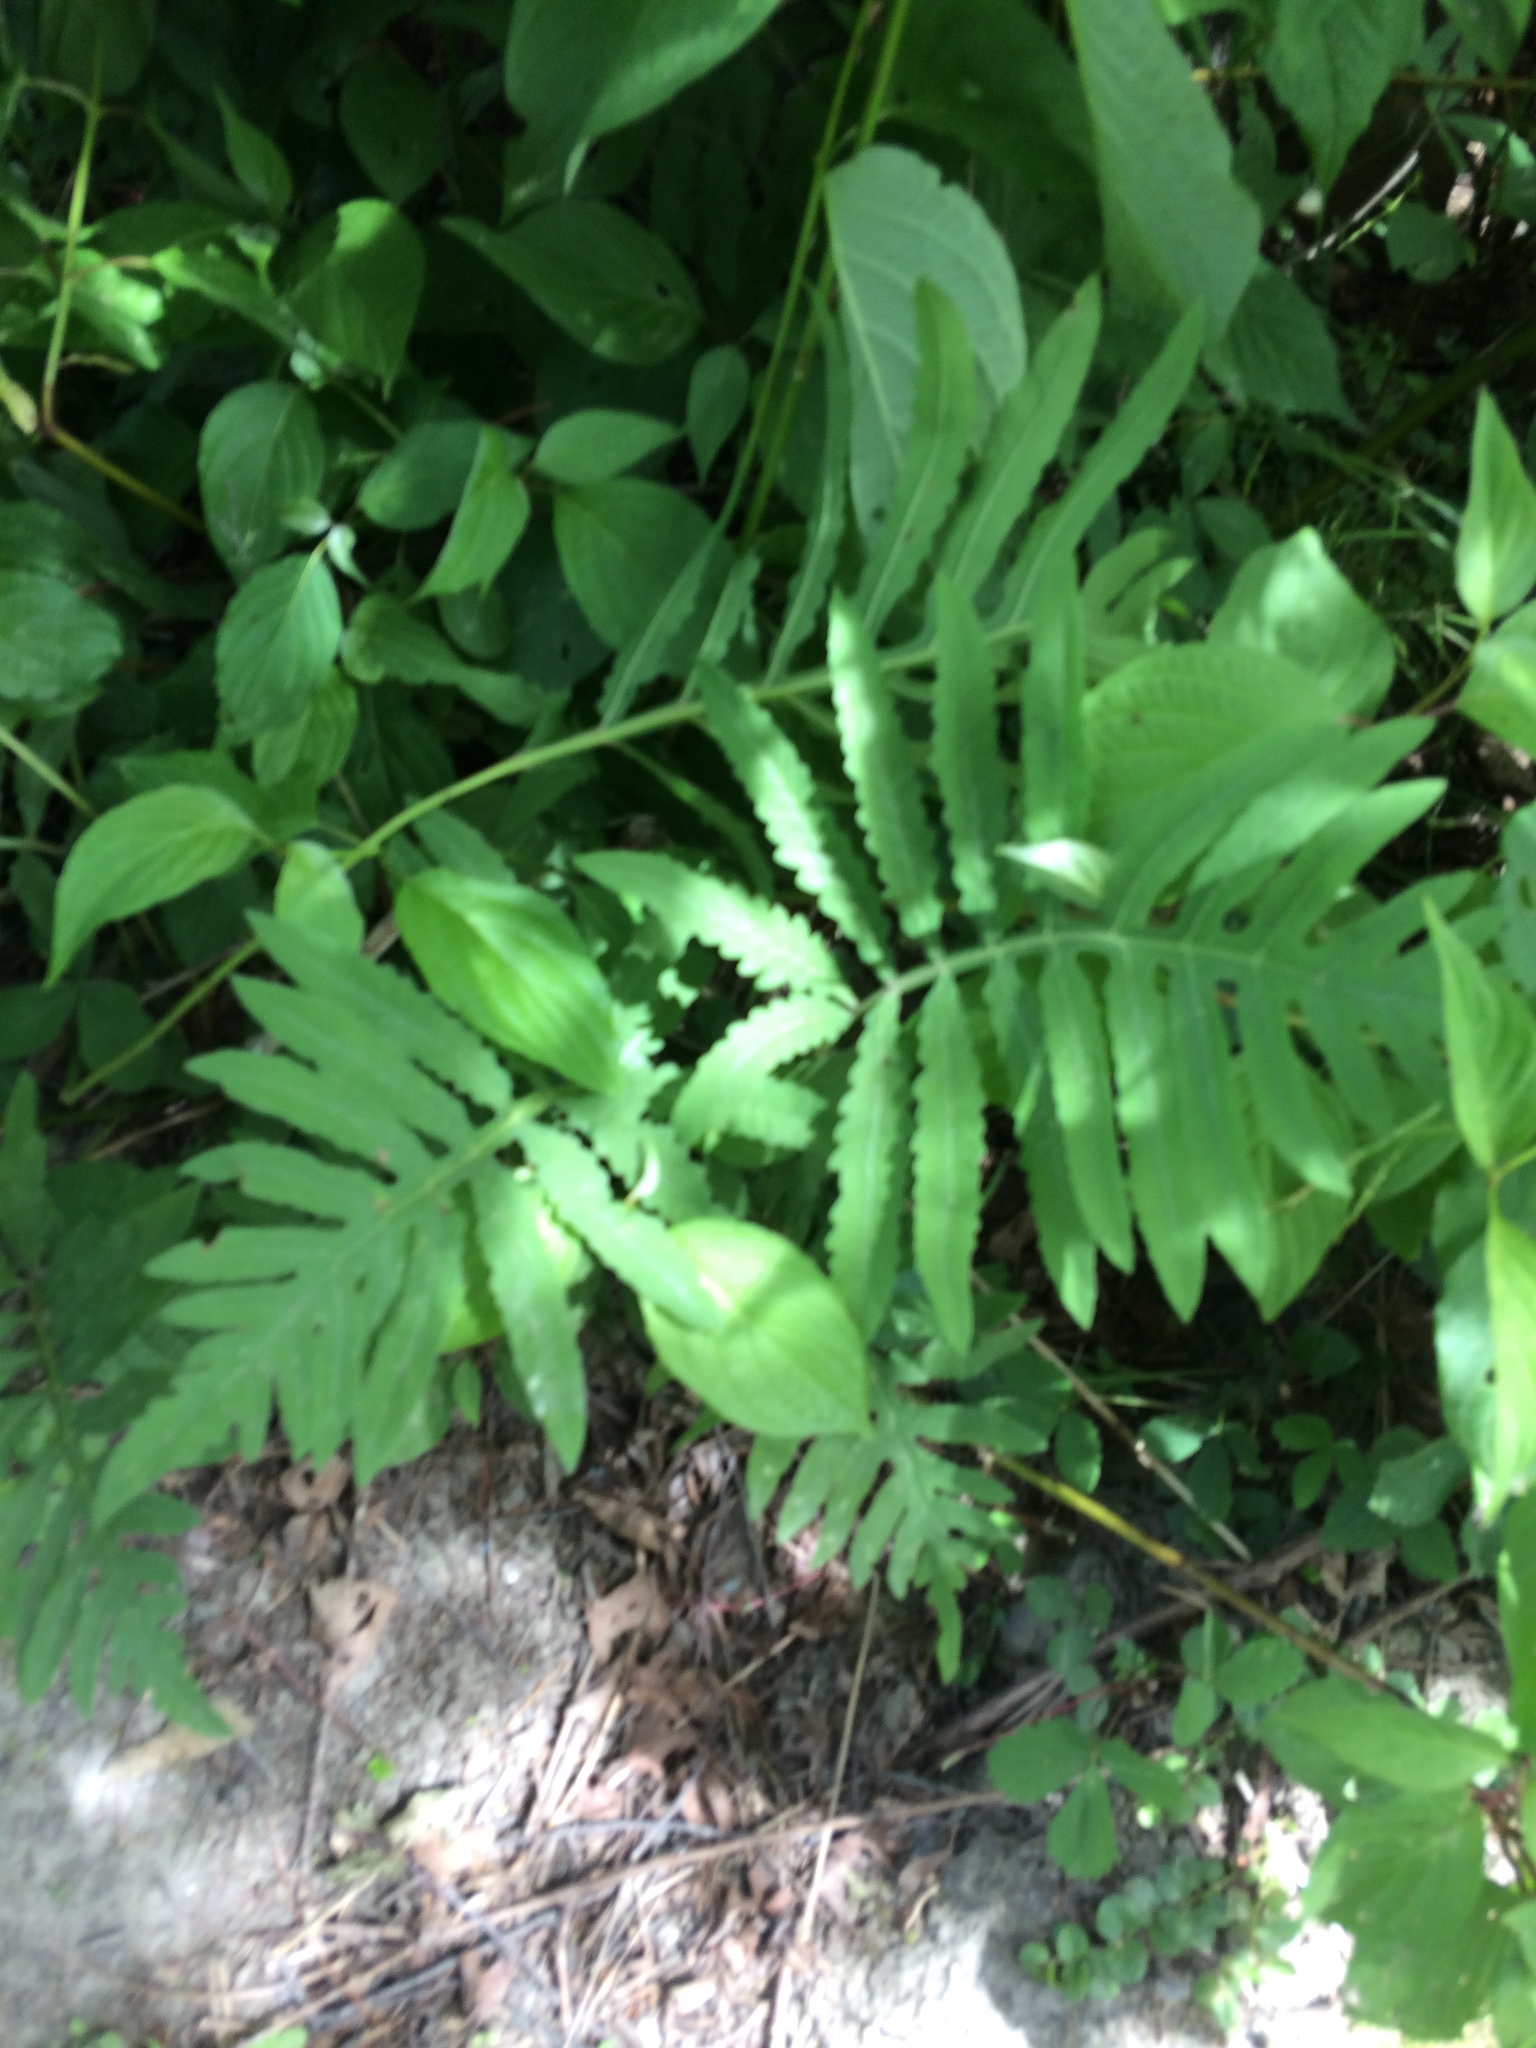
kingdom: Plantae
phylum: Tracheophyta
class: Polypodiopsida
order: Polypodiales
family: Onocleaceae
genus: Onoclea
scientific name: Onoclea sensibilis
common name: Sensitive fern
